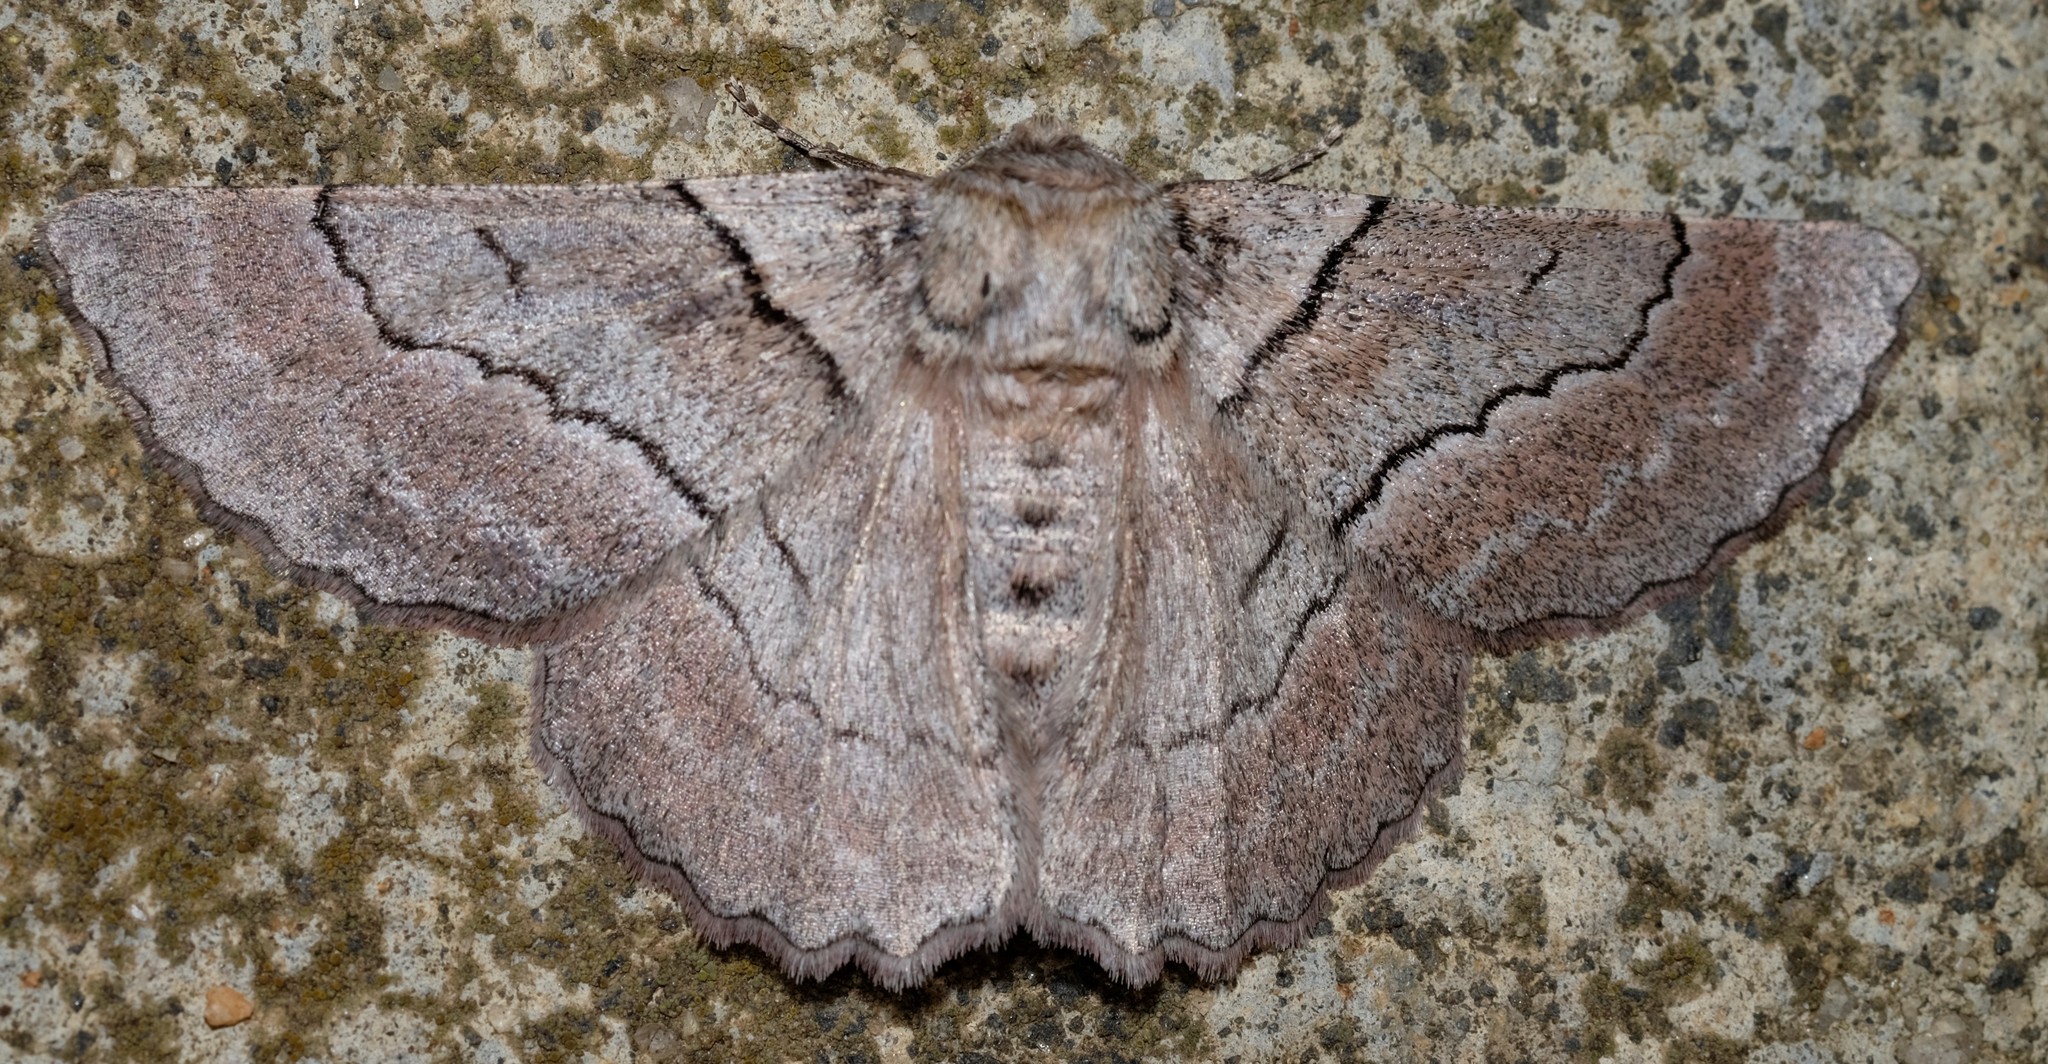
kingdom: Animalia
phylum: Arthropoda
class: Insecta
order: Lepidoptera
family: Geometridae
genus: Hypobapta
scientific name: Hypobapta tachyhalotaria
